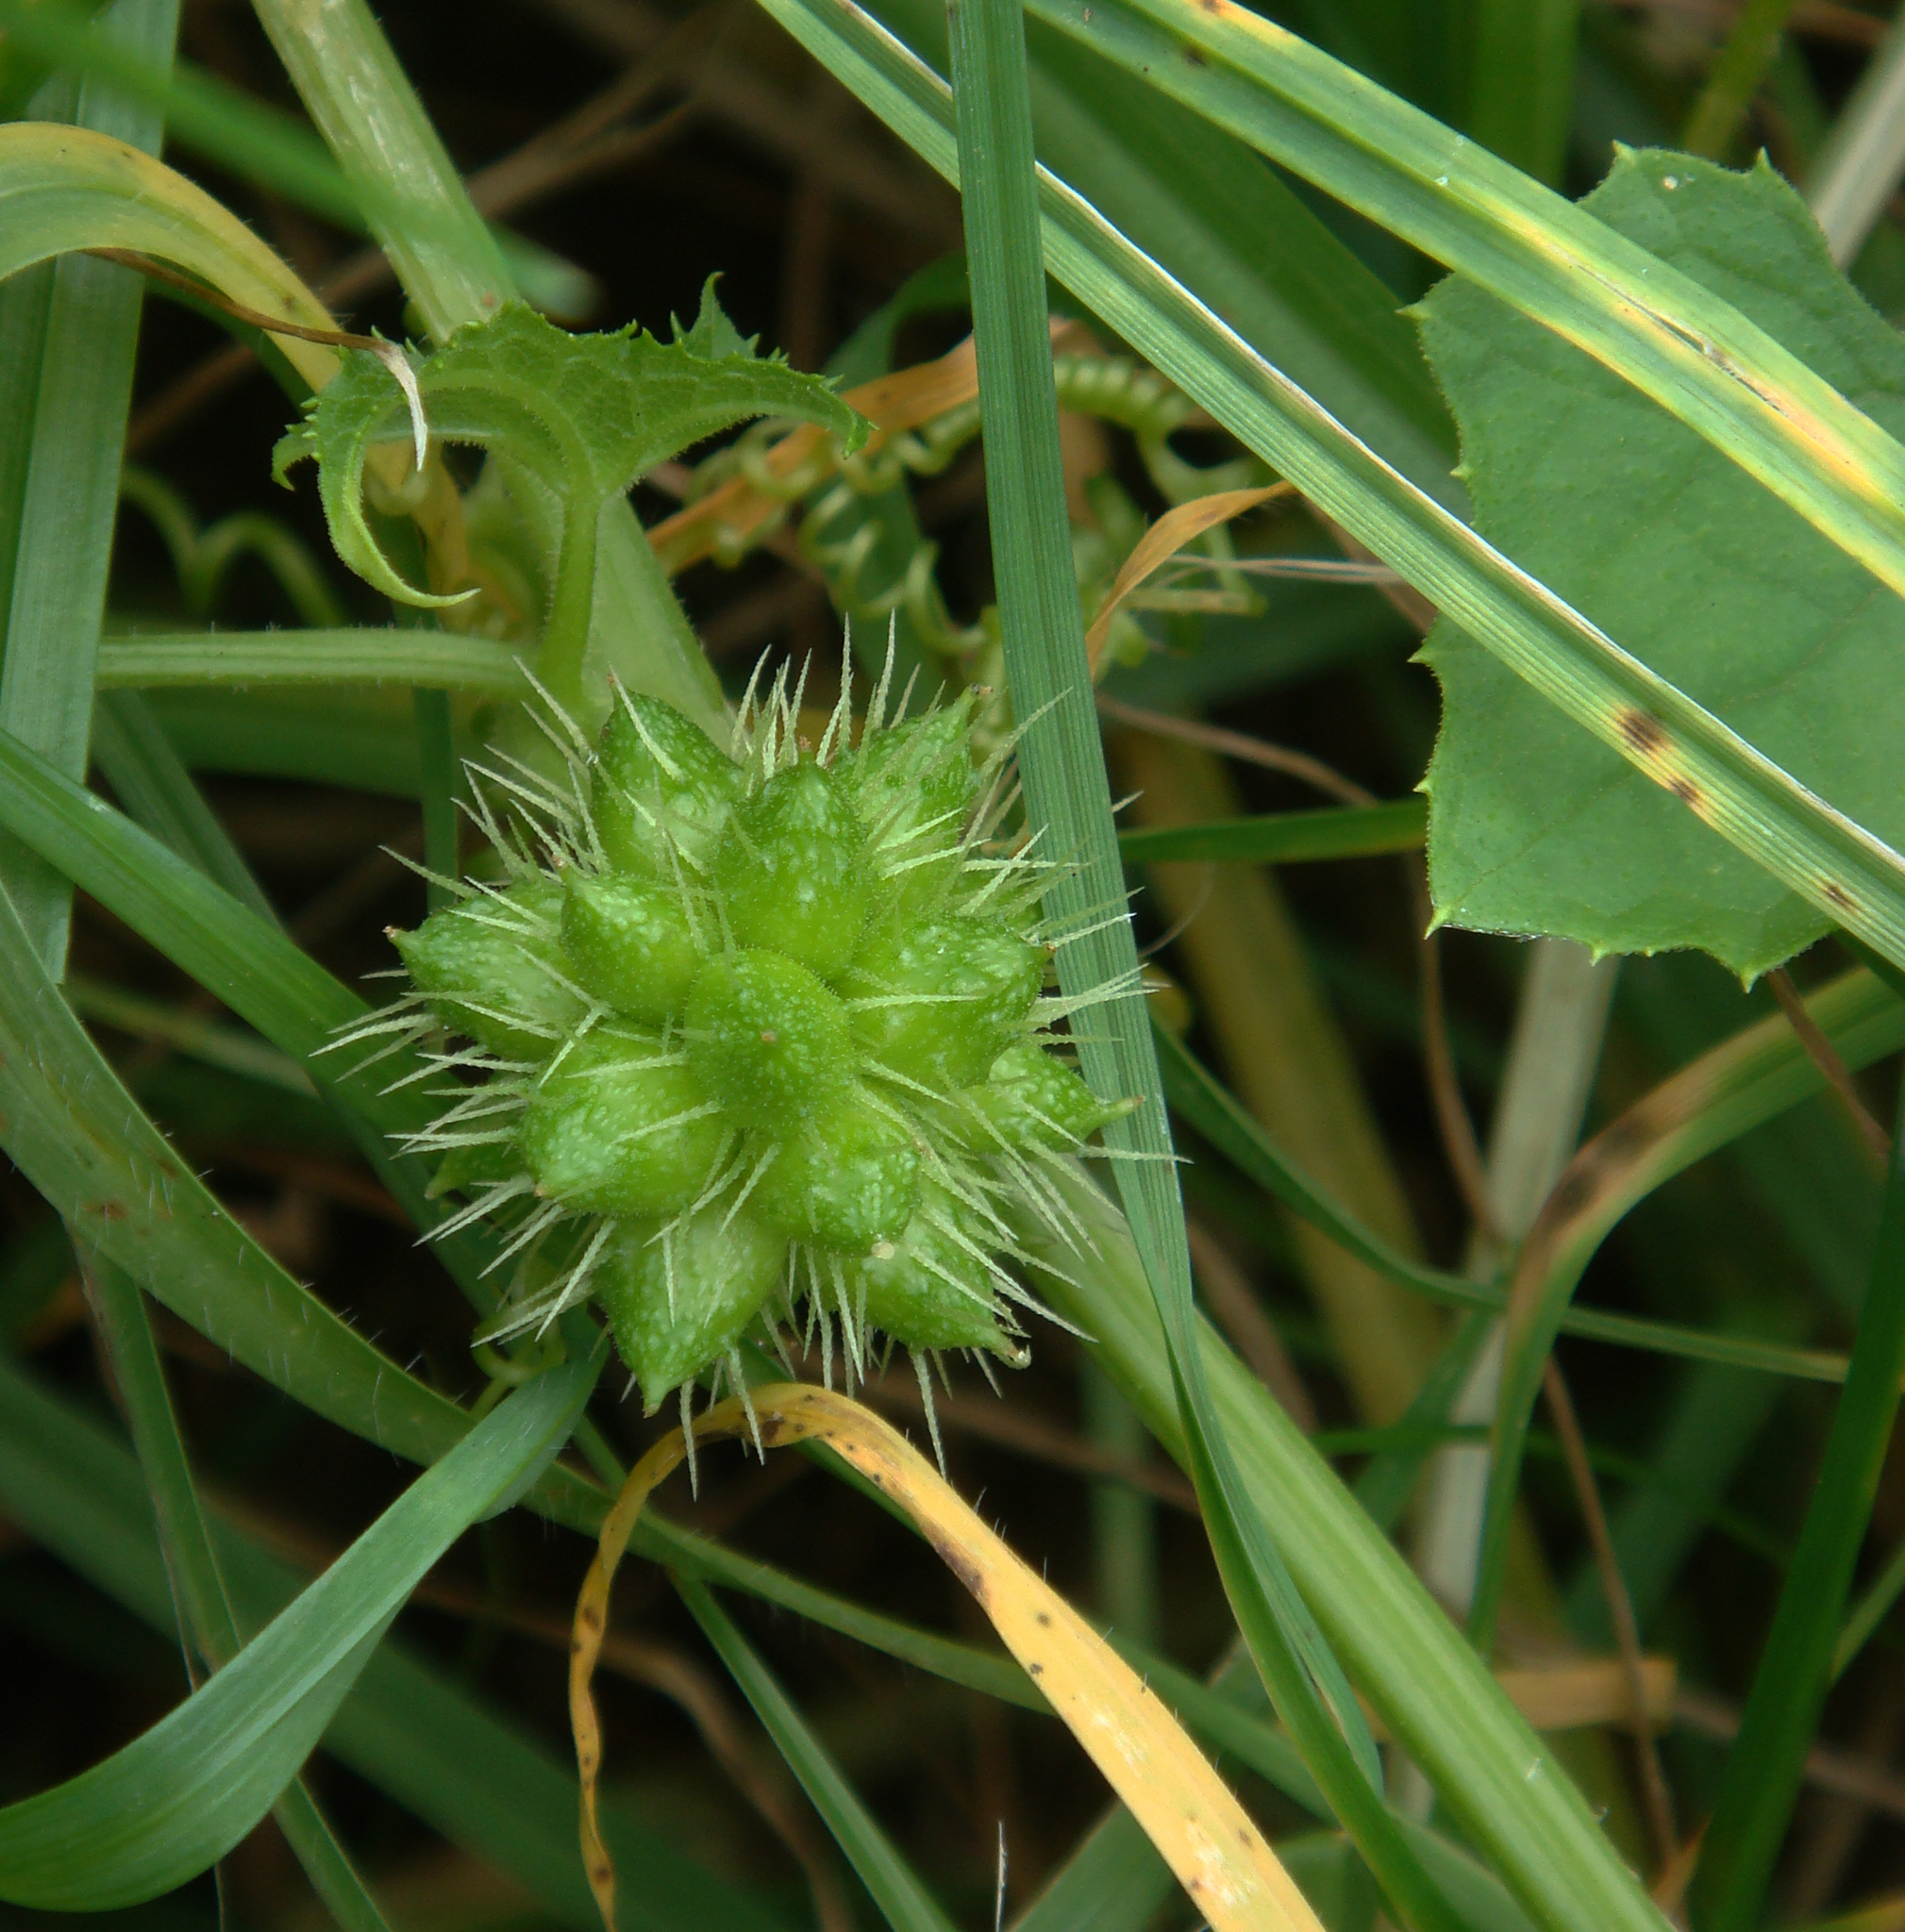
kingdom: Plantae
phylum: Tracheophyta
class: Magnoliopsida
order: Cucurbitales
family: Cucurbitaceae
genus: Sicyos
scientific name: Sicyos australis
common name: Angle-cucumber
